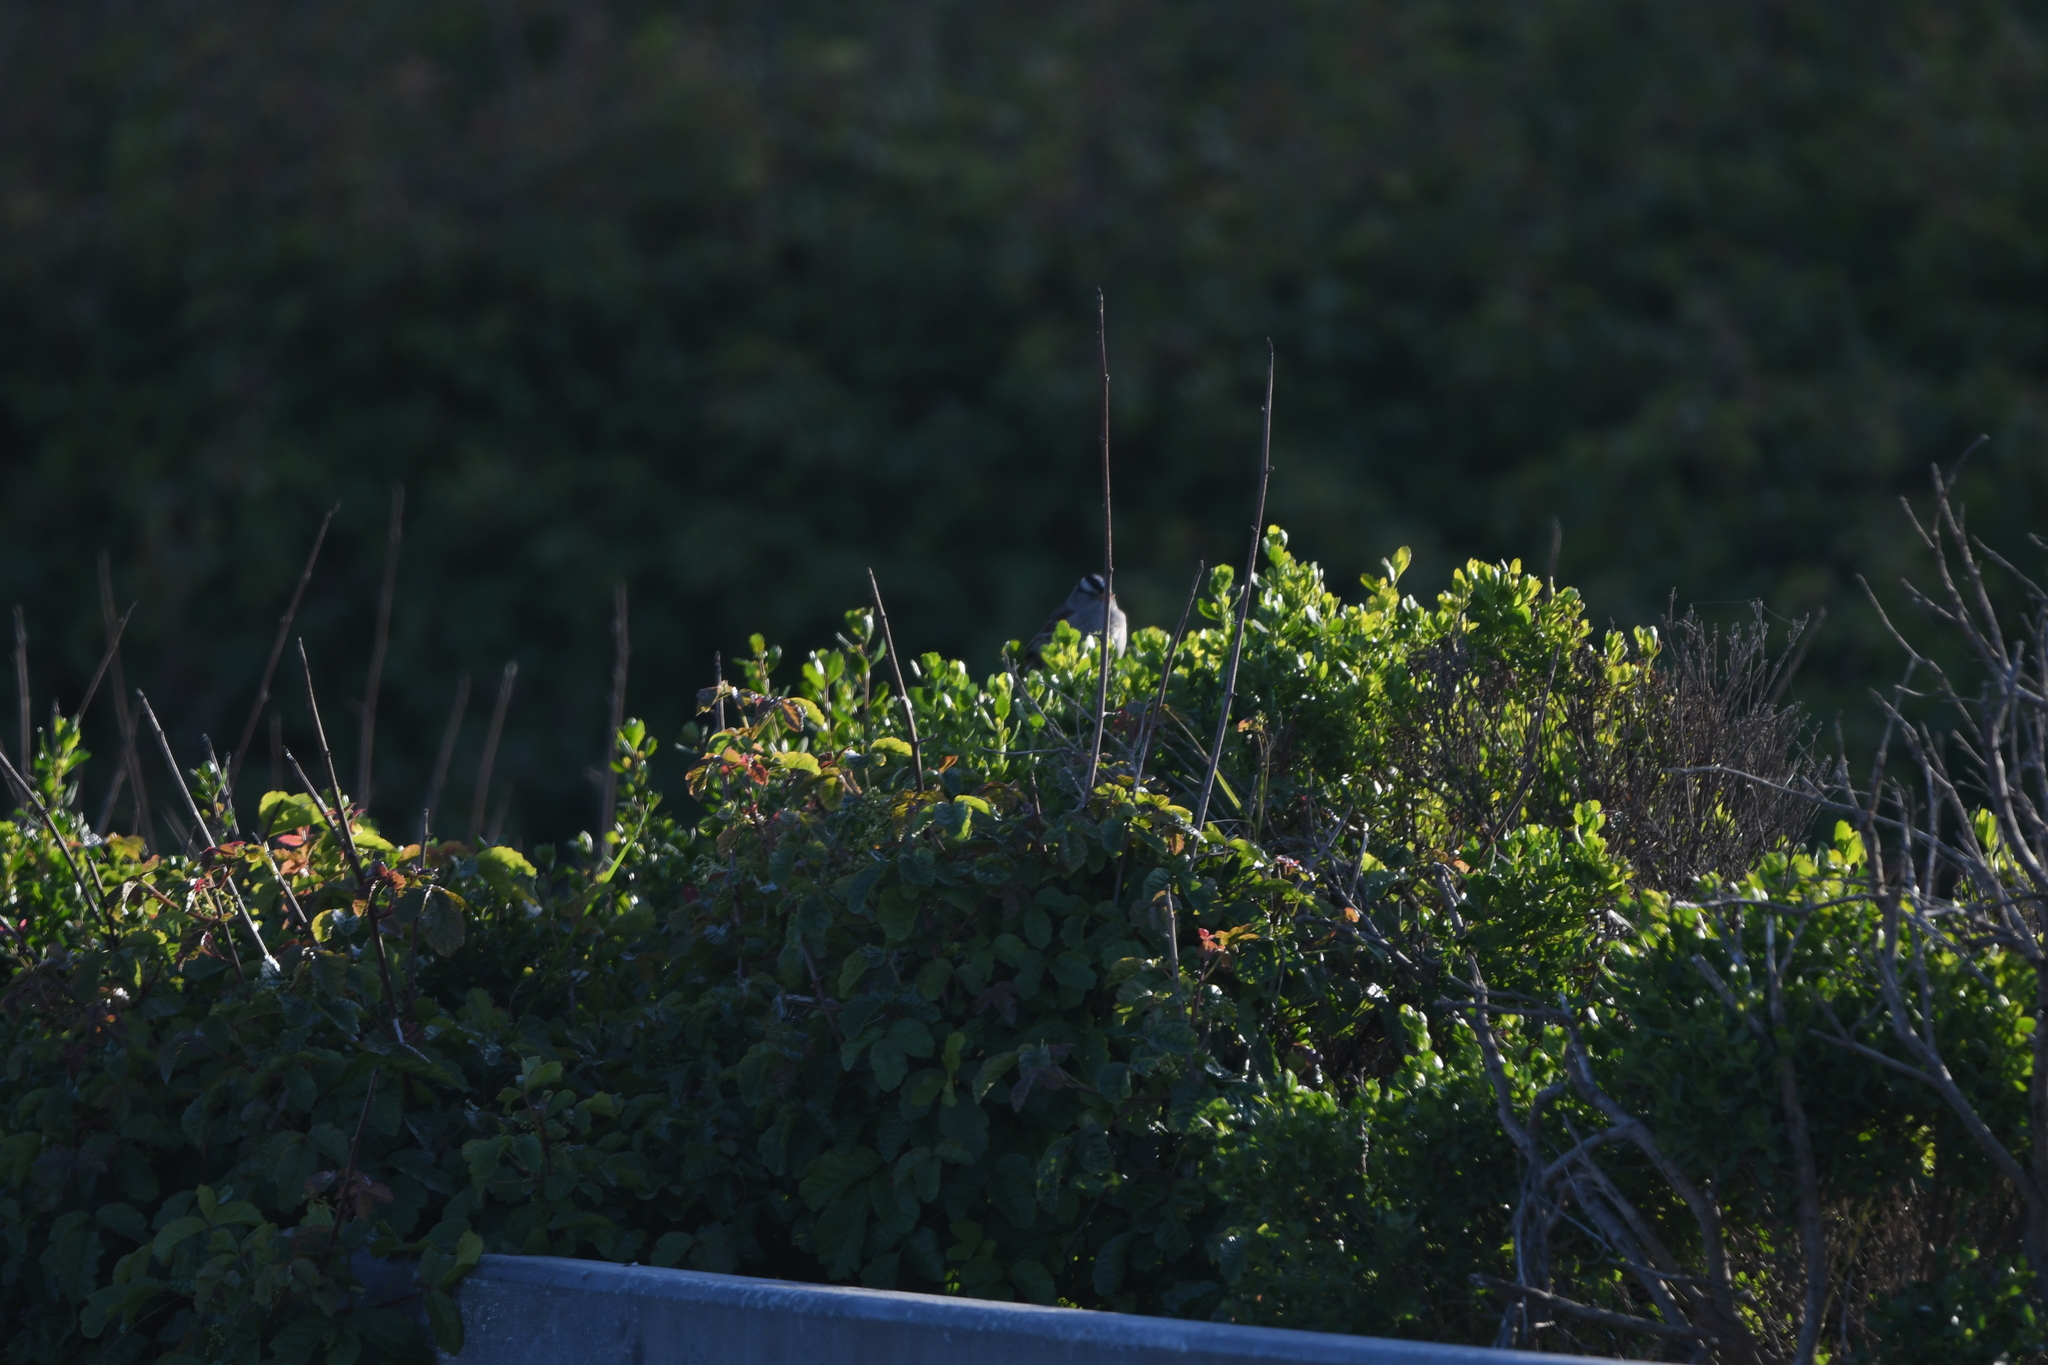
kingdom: Animalia
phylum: Chordata
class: Aves
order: Passeriformes
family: Passerellidae
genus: Zonotrichia
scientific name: Zonotrichia leucophrys
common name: White-crowned sparrow
